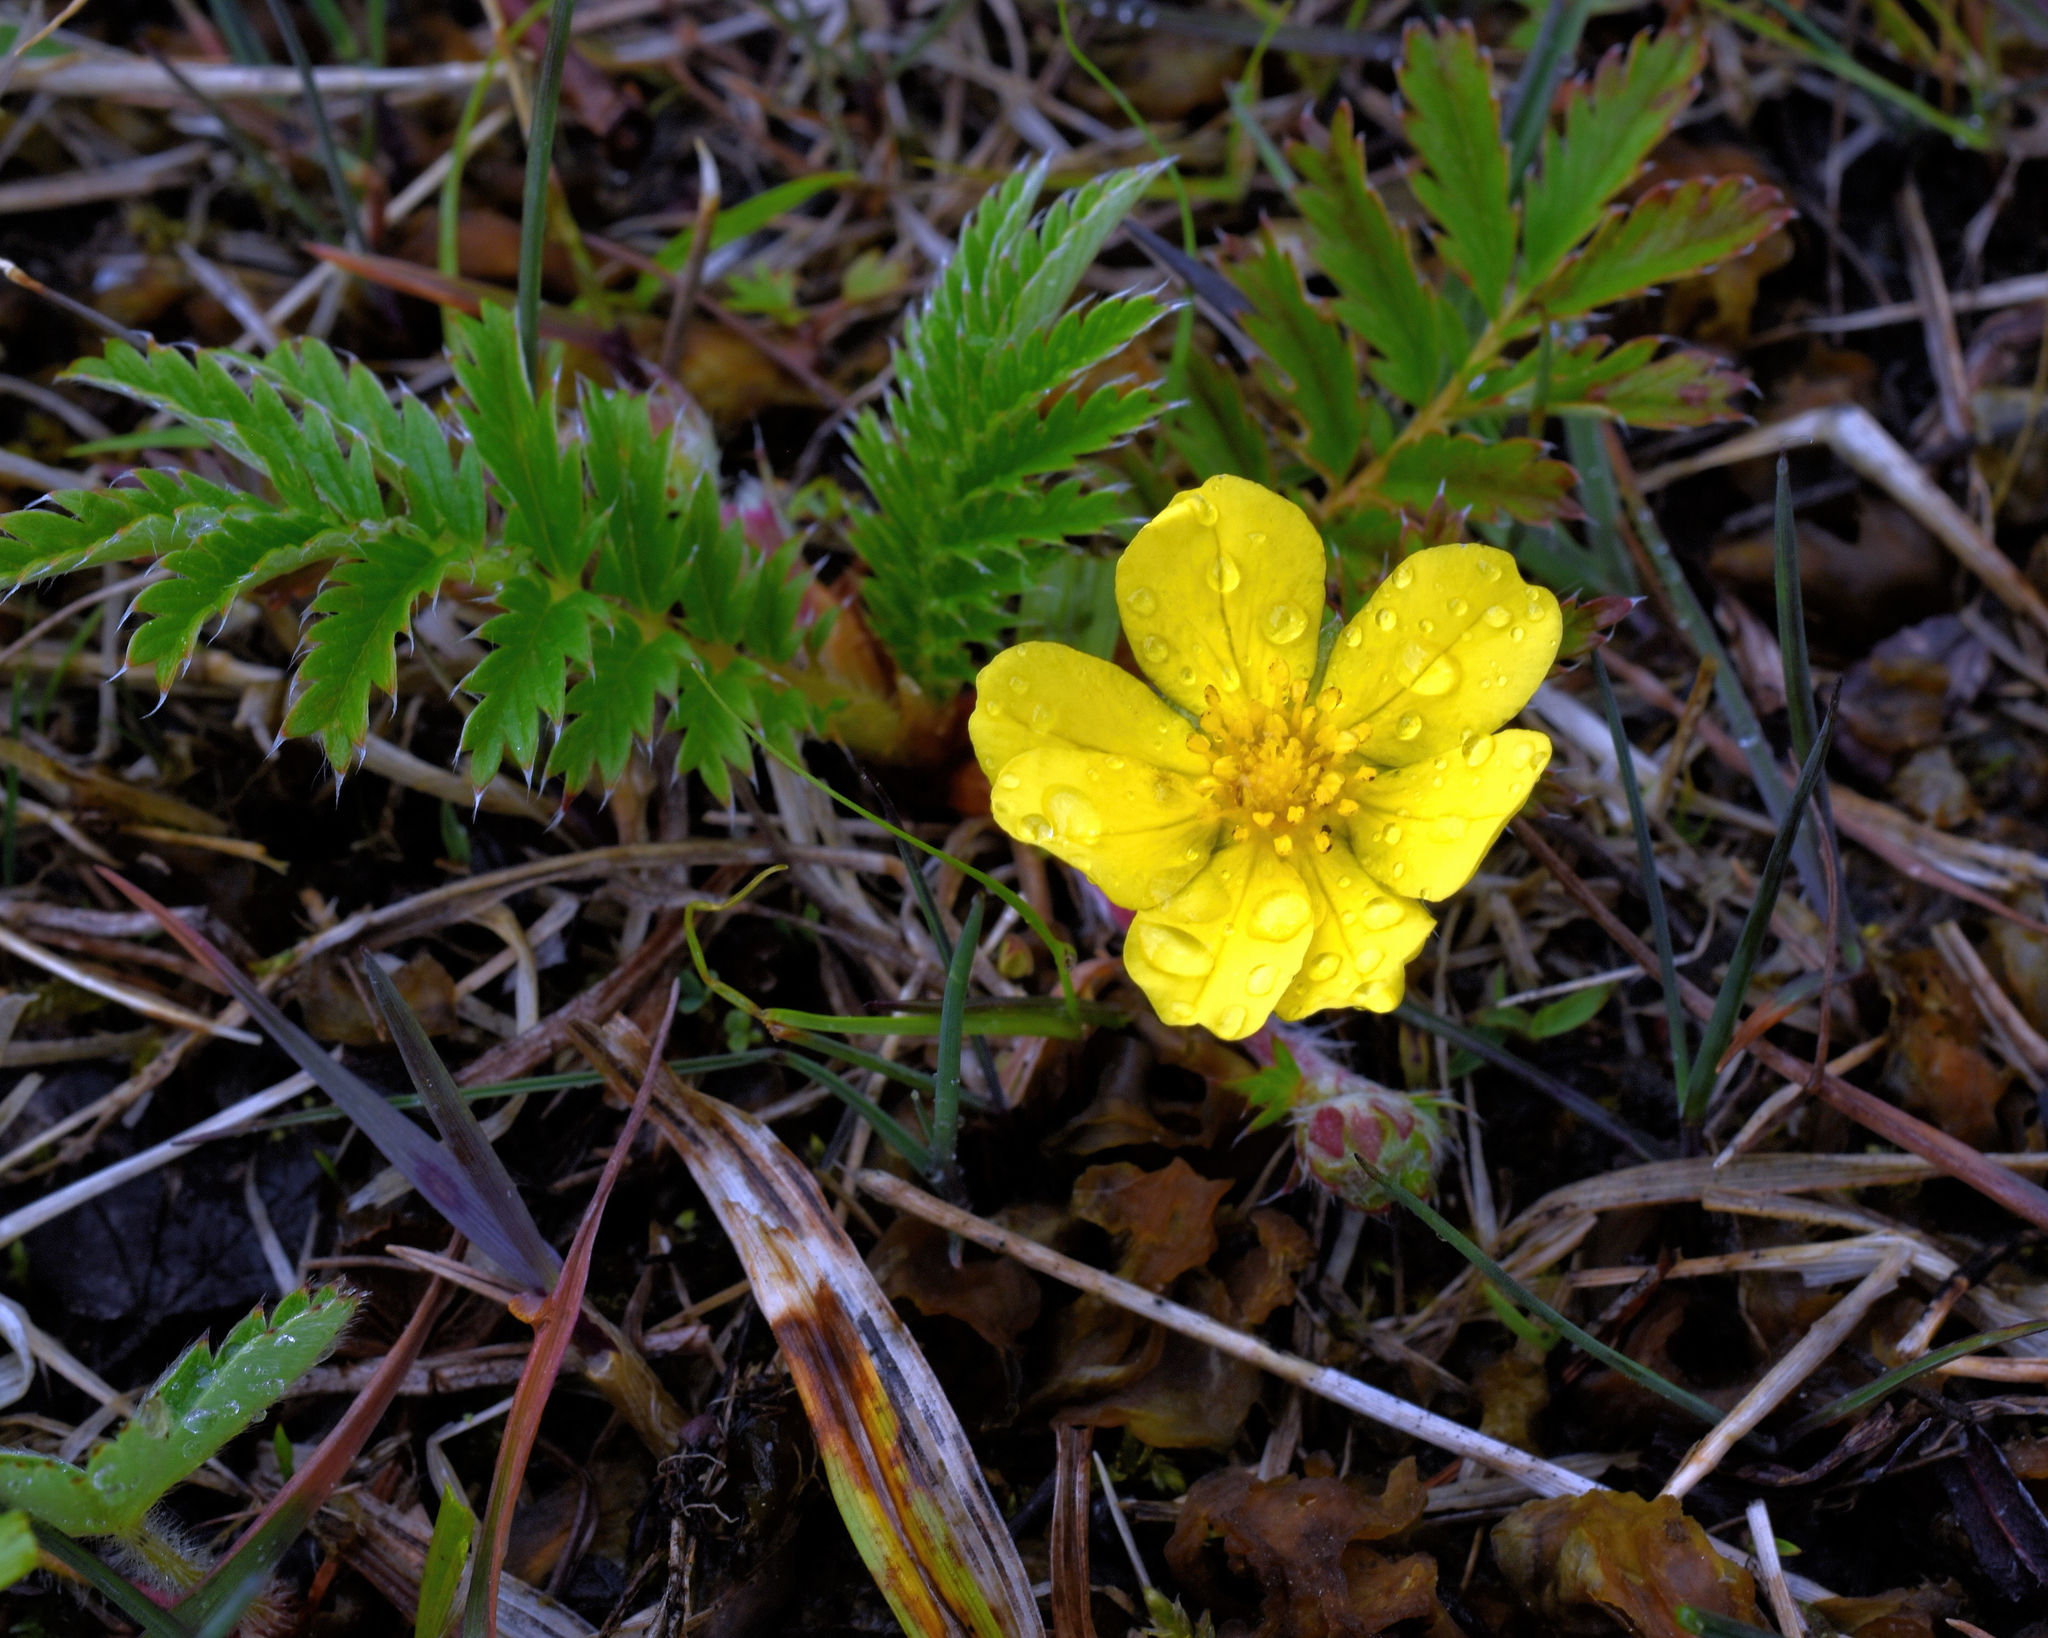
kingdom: Plantae
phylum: Tracheophyta
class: Magnoliopsida
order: Rosales
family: Rosaceae
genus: Argentina
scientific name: Argentina anserina
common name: Common silverweed
